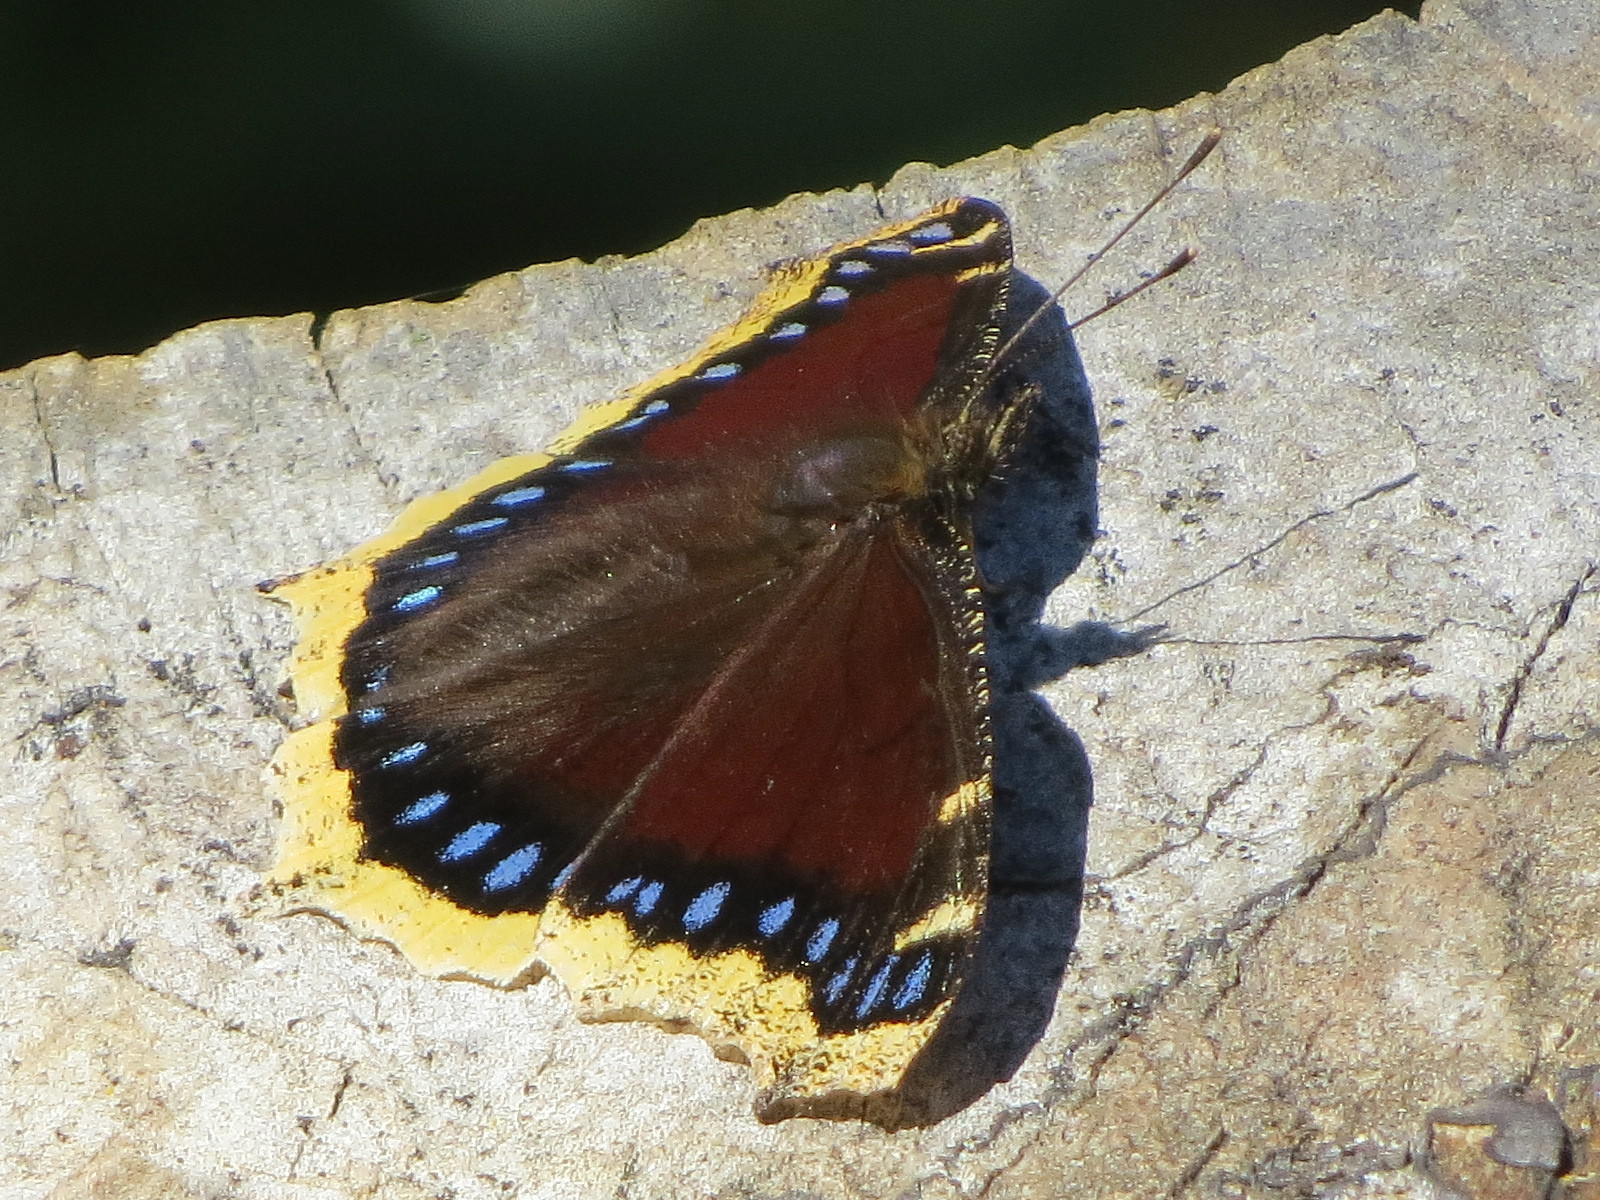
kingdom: Animalia
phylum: Arthropoda
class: Insecta
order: Lepidoptera
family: Nymphalidae
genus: Nymphalis
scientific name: Nymphalis antiopa
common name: Camberwell beauty
